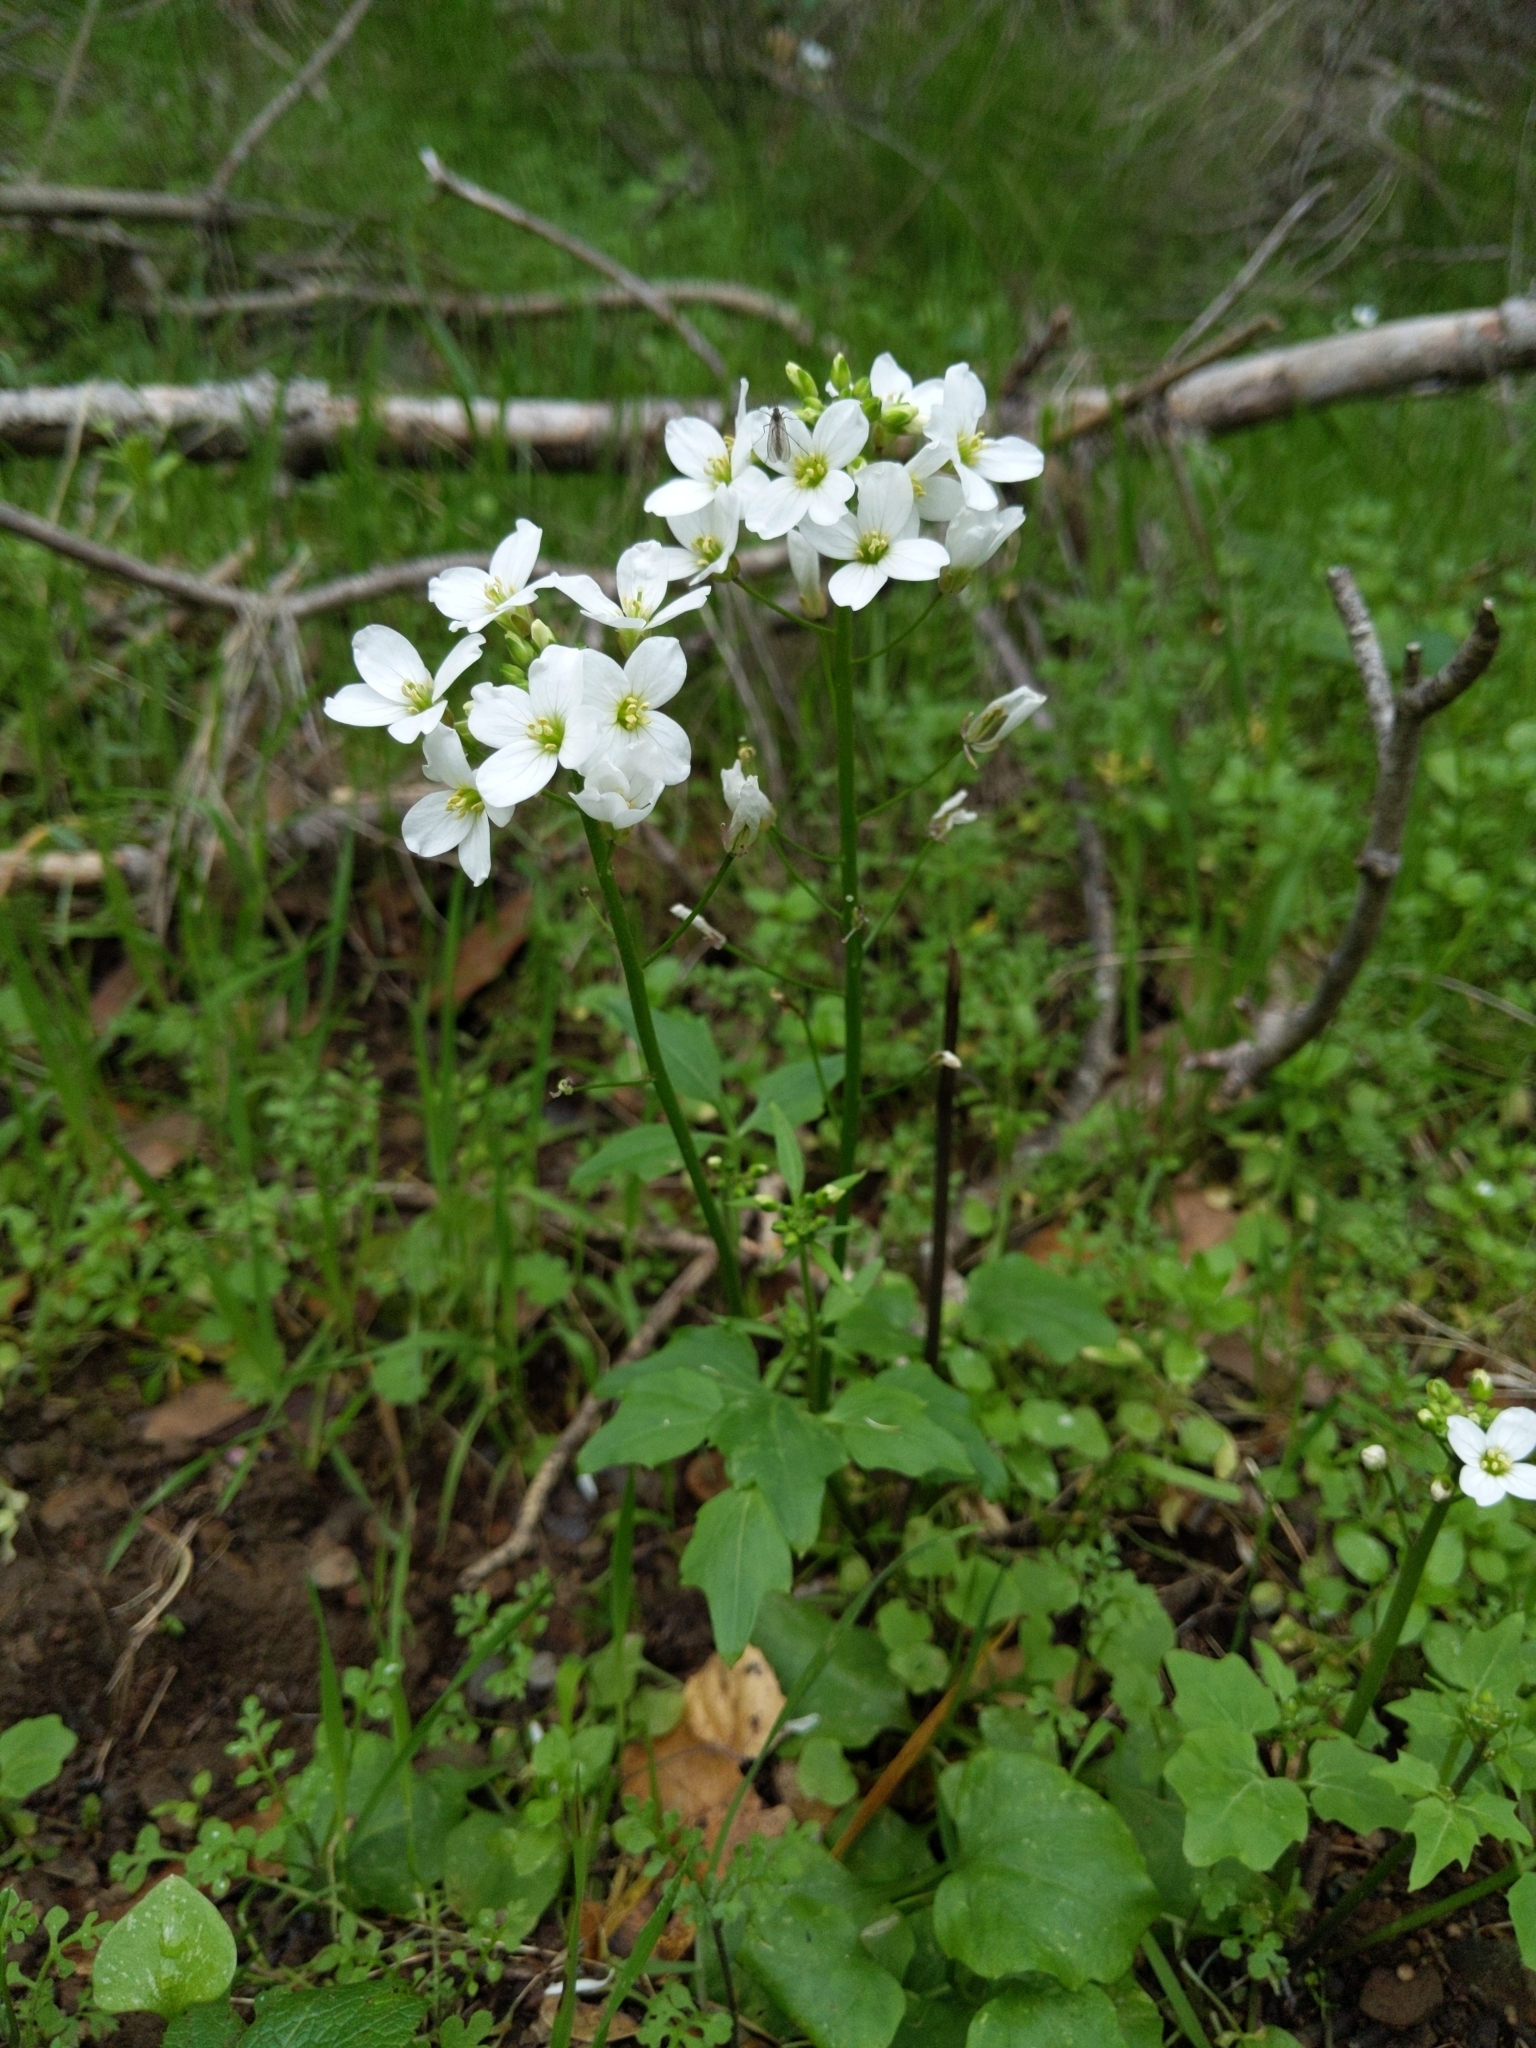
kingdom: Plantae
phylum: Tracheophyta
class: Magnoliopsida
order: Brassicales
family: Brassicaceae
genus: Cardamine
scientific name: Cardamine californica
